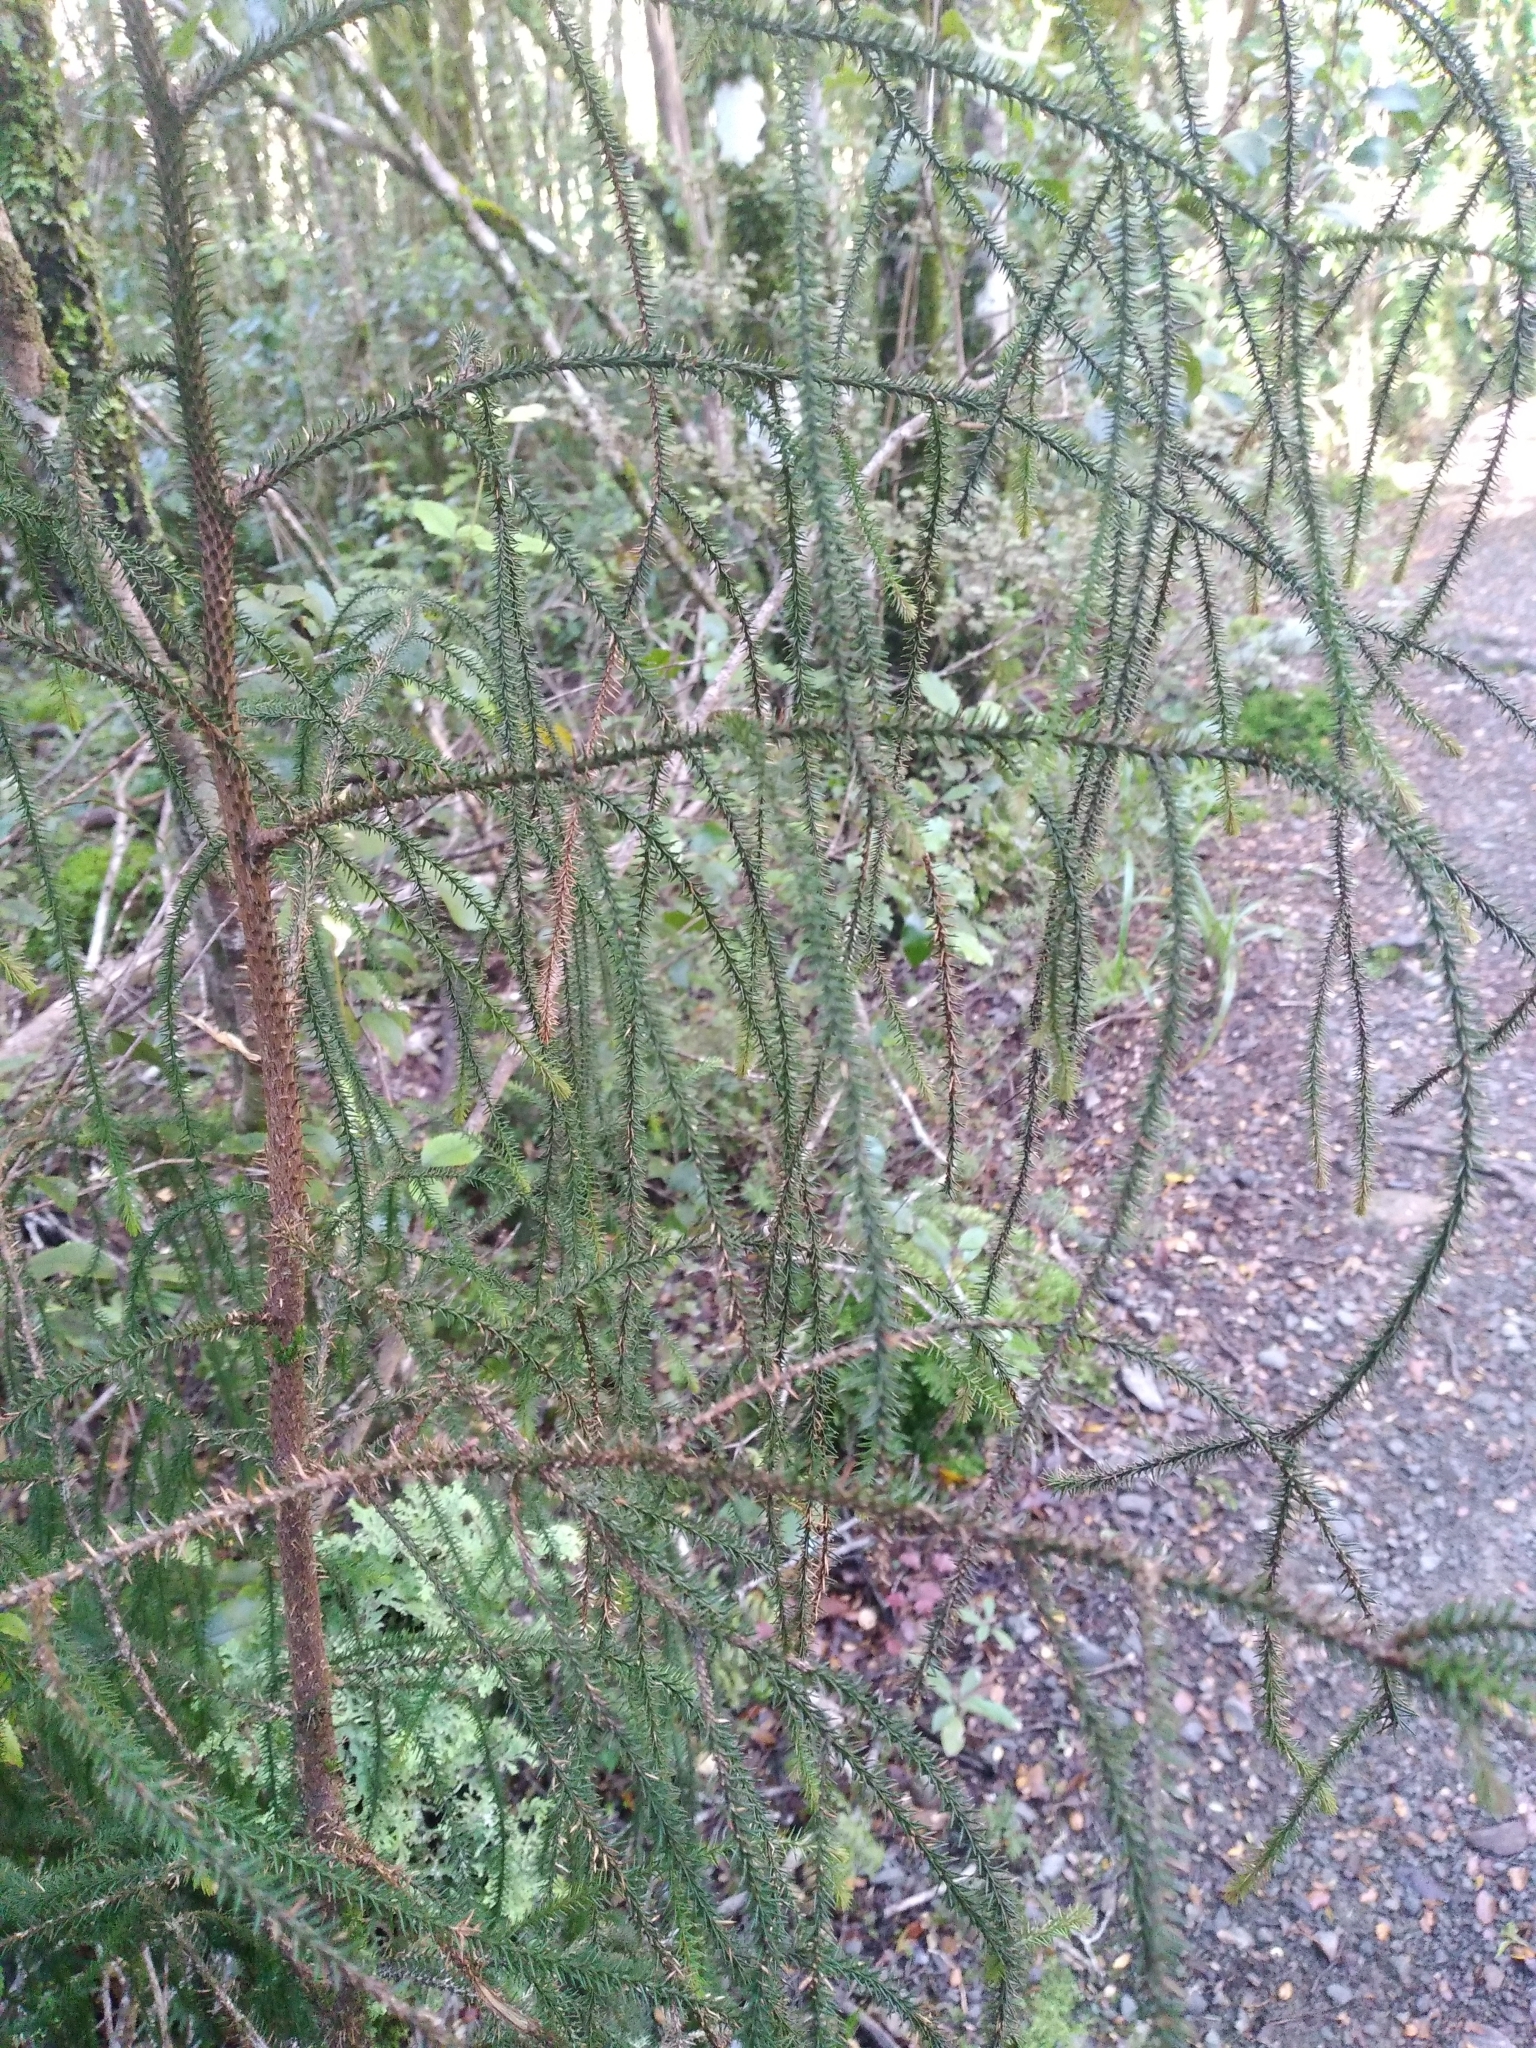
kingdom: Plantae
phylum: Tracheophyta
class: Pinopsida
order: Pinales
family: Podocarpaceae
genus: Dacrydium
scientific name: Dacrydium cupressinum
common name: Red pine
